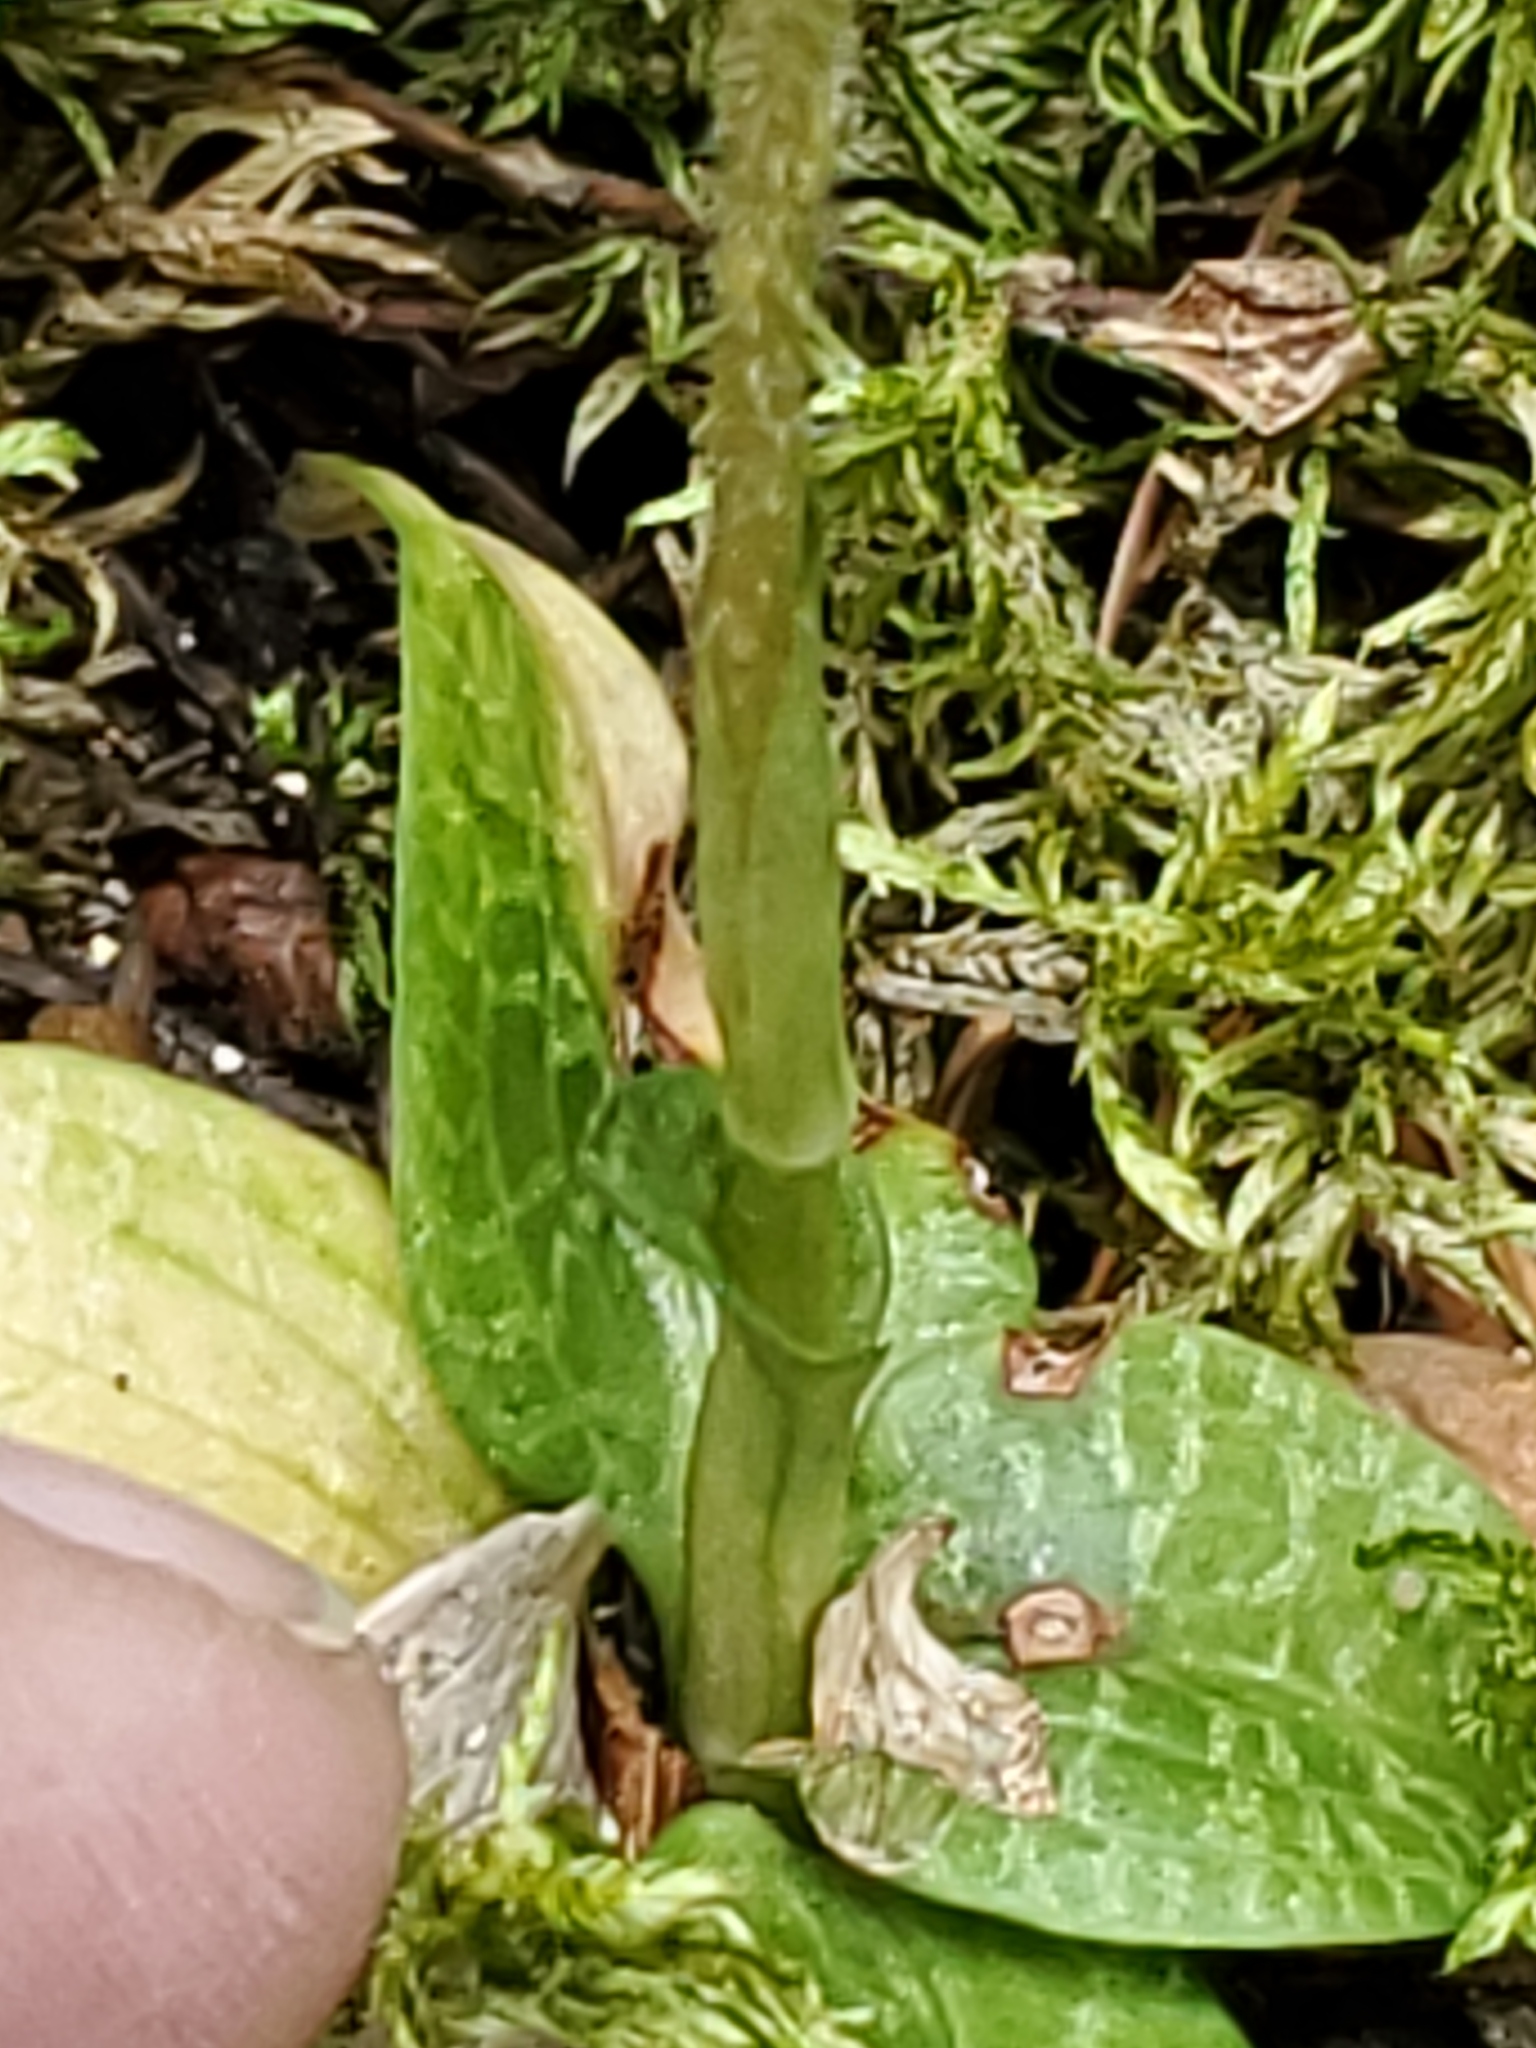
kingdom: Plantae
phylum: Tracheophyta
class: Liliopsida
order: Asparagales
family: Orchidaceae
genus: Goodyera
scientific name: Goodyera repens
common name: Creeping lady's-tresses
